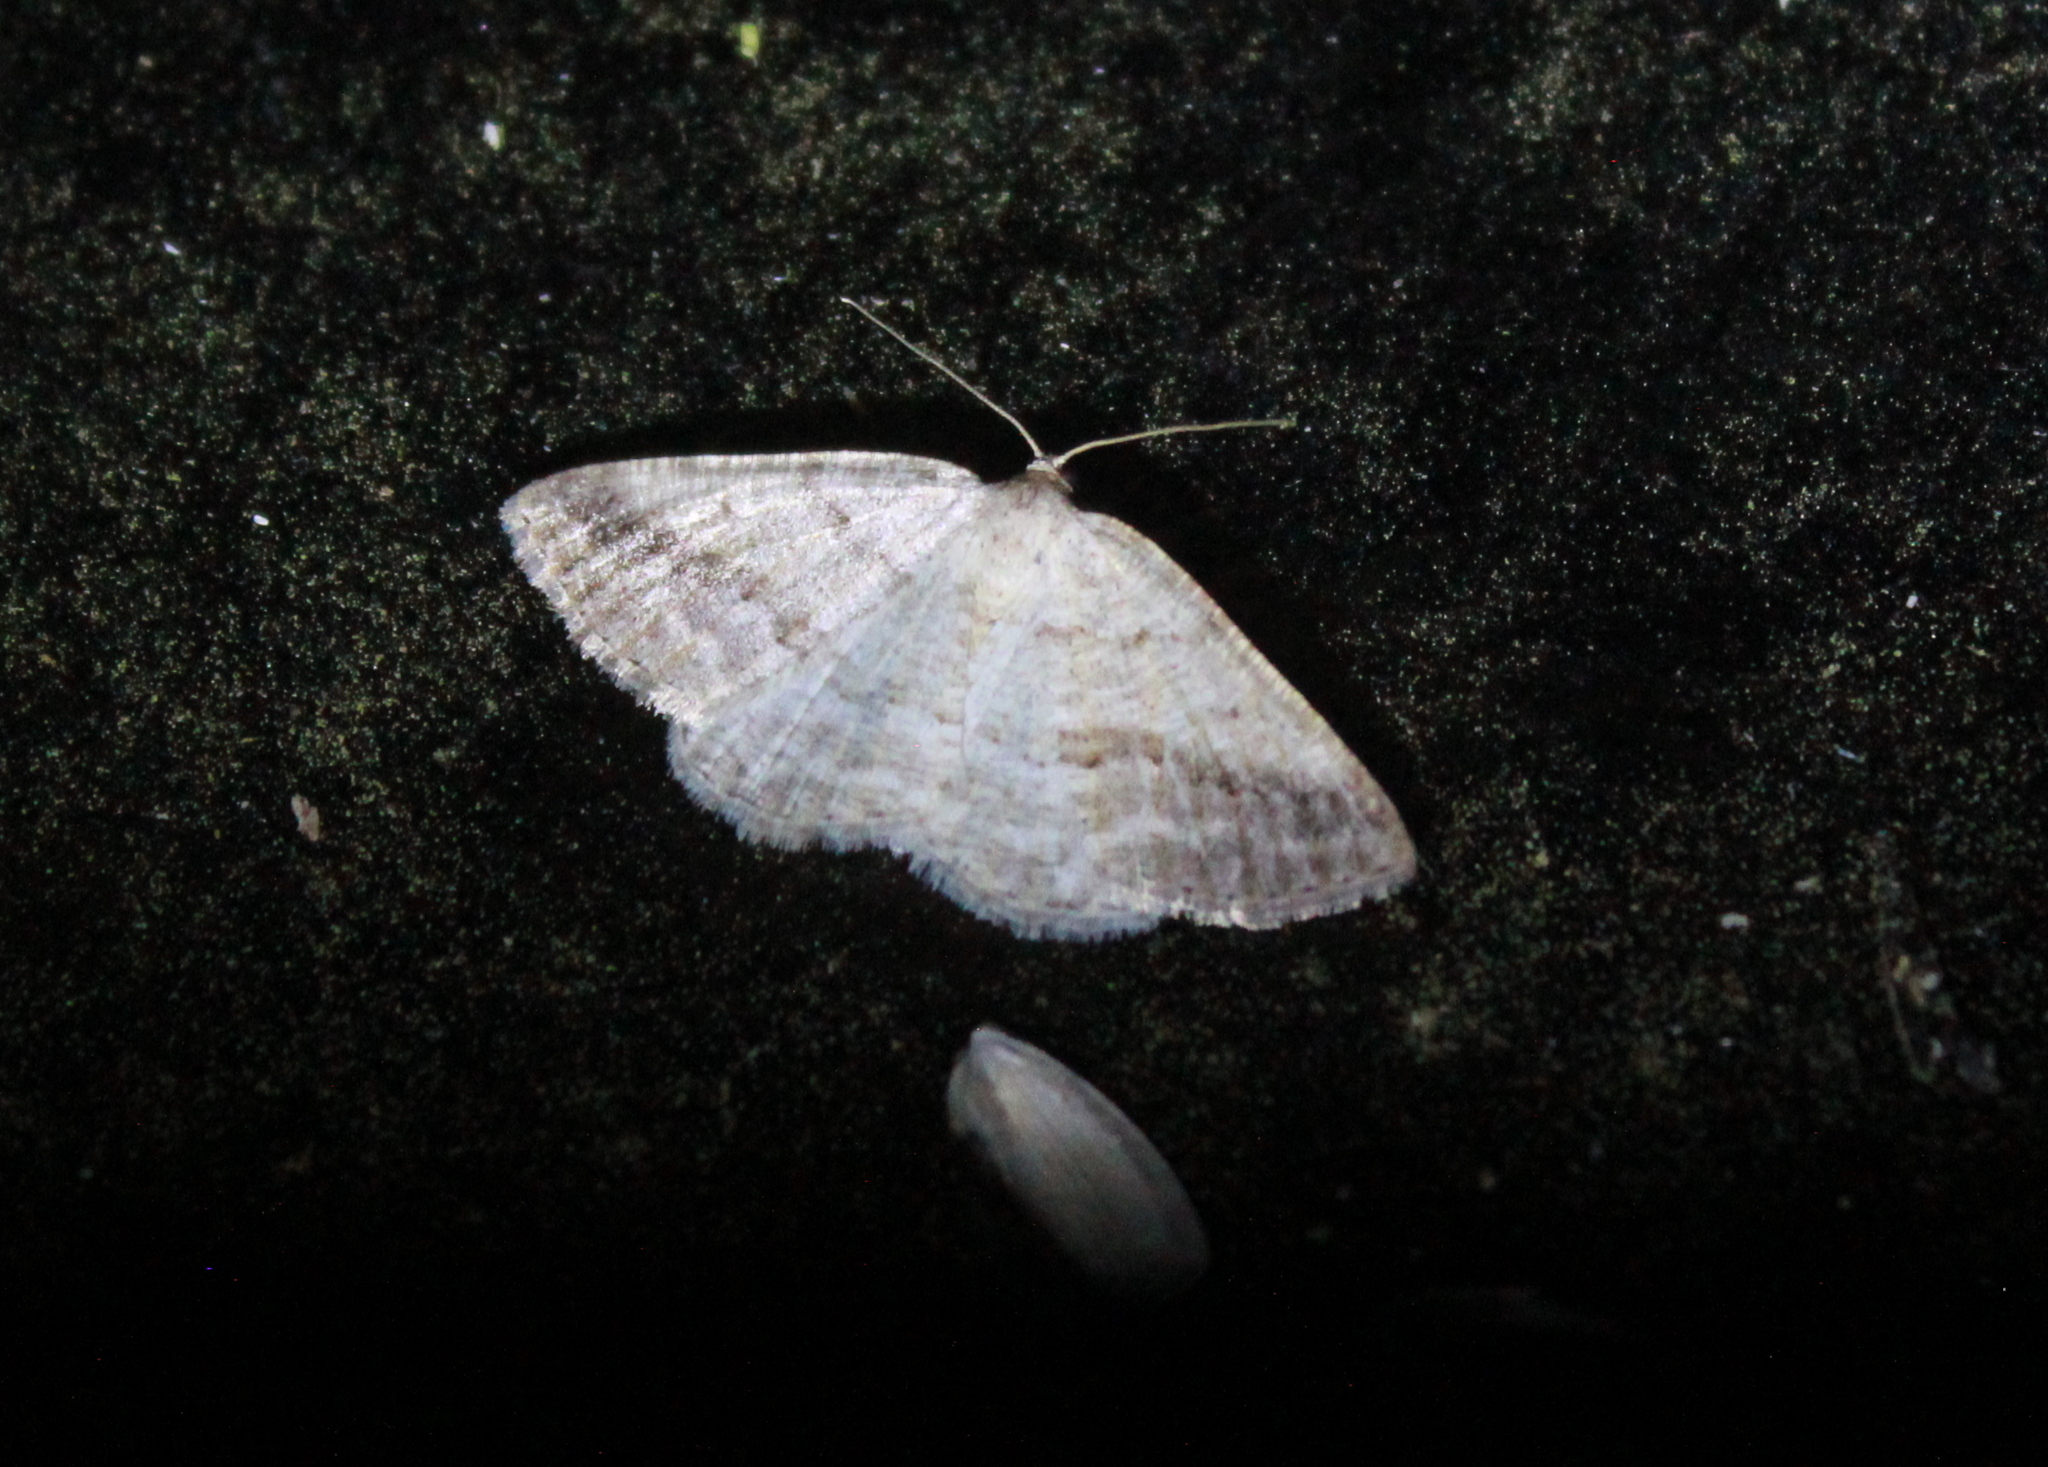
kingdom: Animalia
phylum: Arthropoda
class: Insecta
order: Lepidoptera
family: Geometridae
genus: Tacparia
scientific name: Tacparia detersata
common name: Pale alder moth
